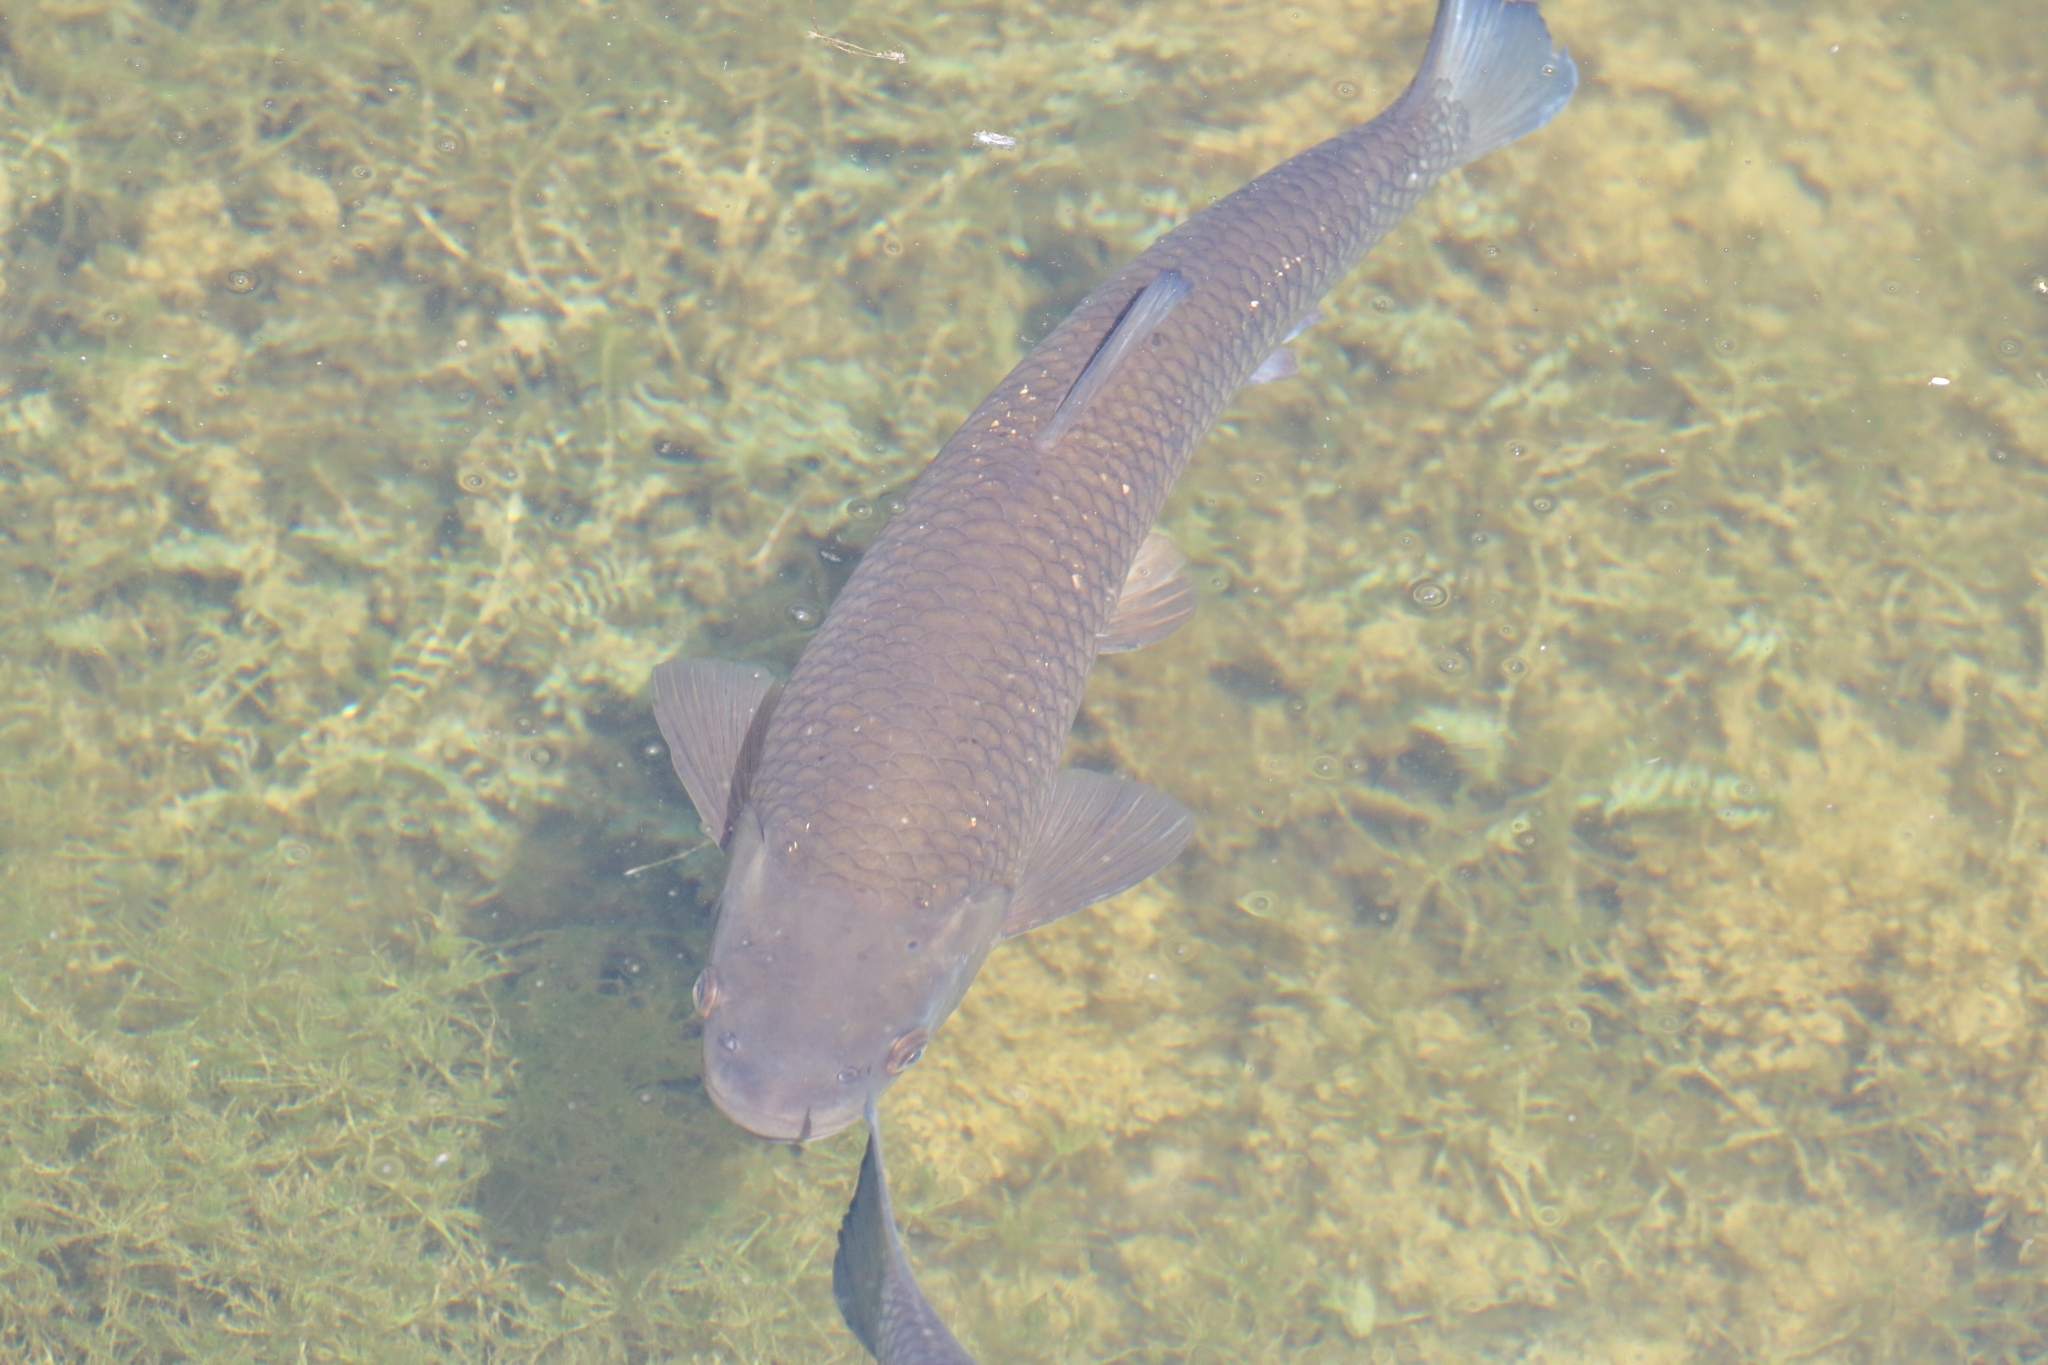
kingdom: Animalia
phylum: Chordata
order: Cypriniformes
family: Cyprinidae
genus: Squalius
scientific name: Squalius cephalus
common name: Chub
